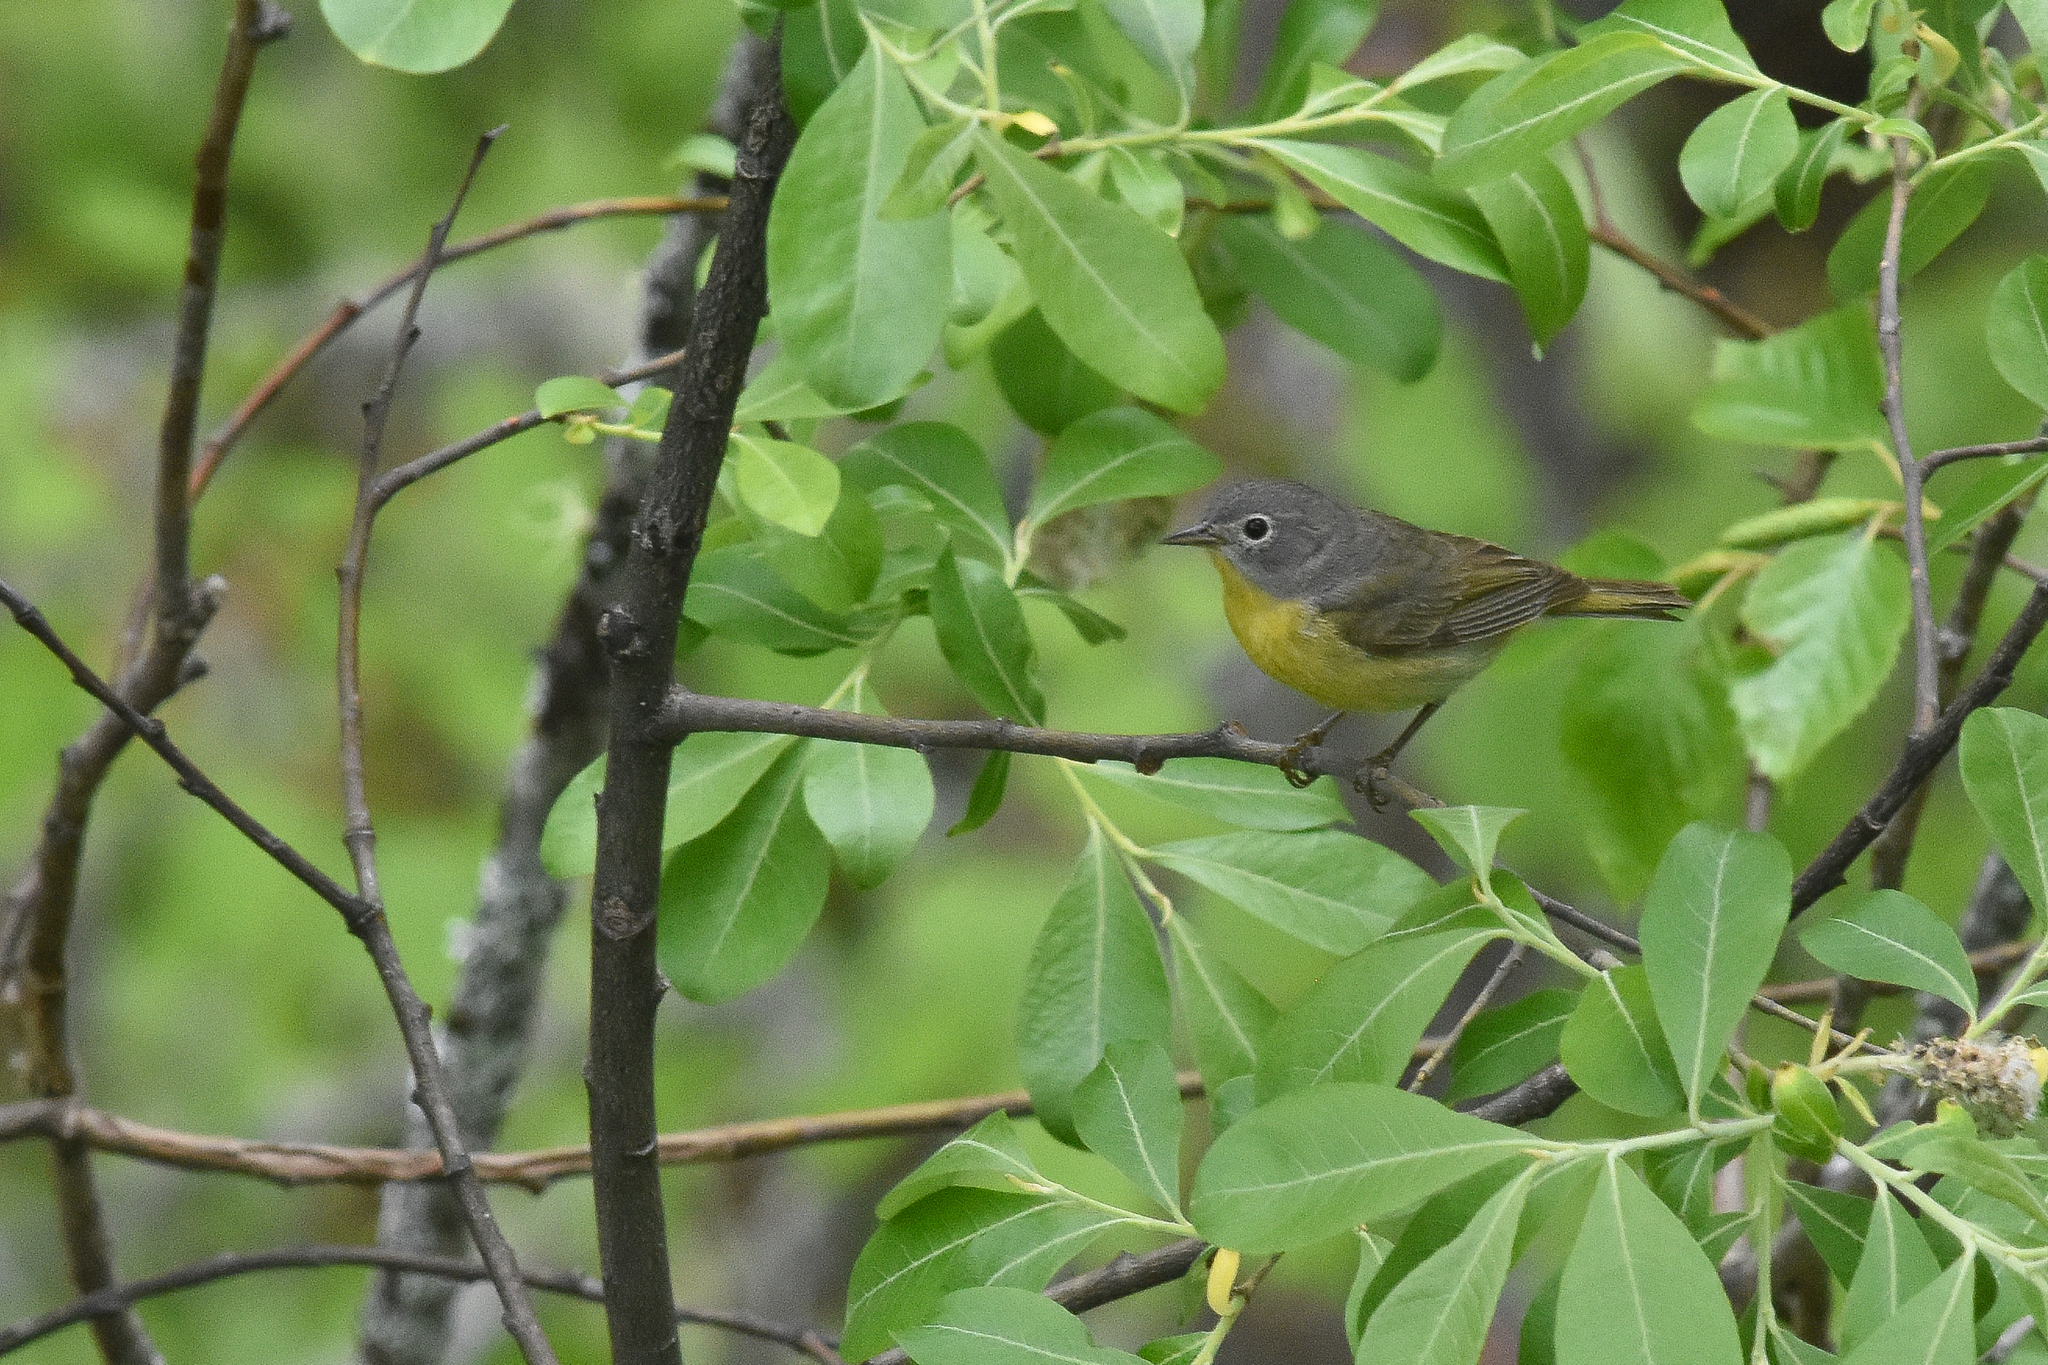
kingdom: Animalia
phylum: Chordata
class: Aves
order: Passeriformes
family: Parulidae
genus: Leiothlypis
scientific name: Leiothlypis ruficapilla
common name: Nashville warbler
